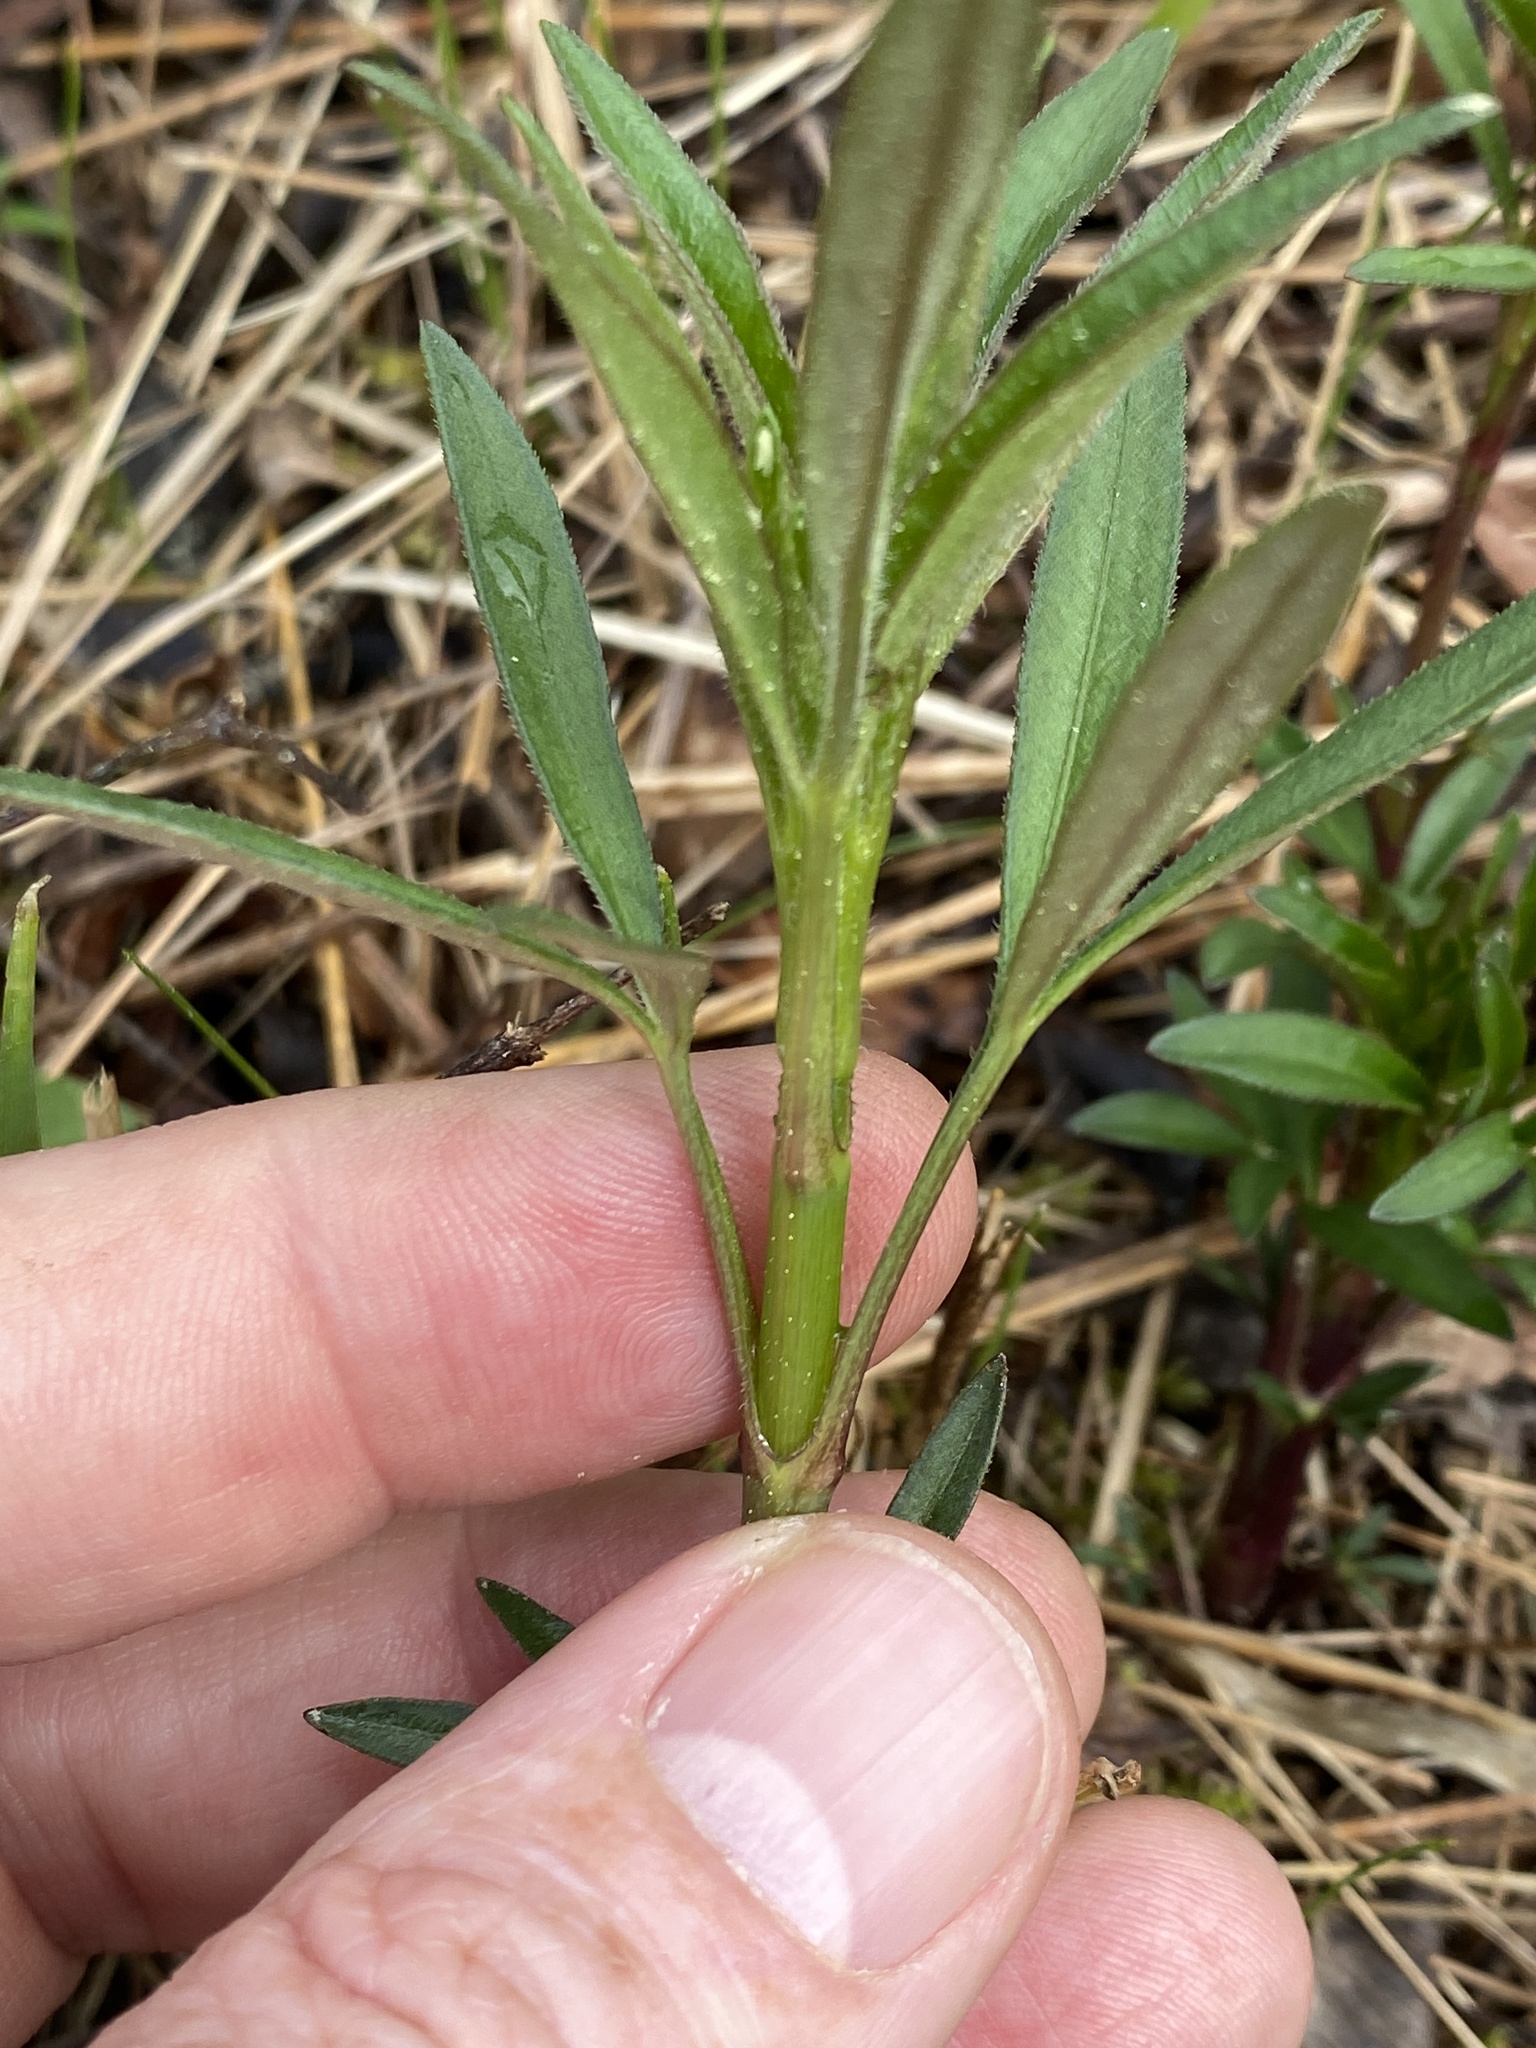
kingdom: Plantae
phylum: Tracheophyta
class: Magnoliopsida
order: Asterales
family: Asteraceae
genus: Coreopsis
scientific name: Coreopsis tripteris
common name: Tall coreopsis
